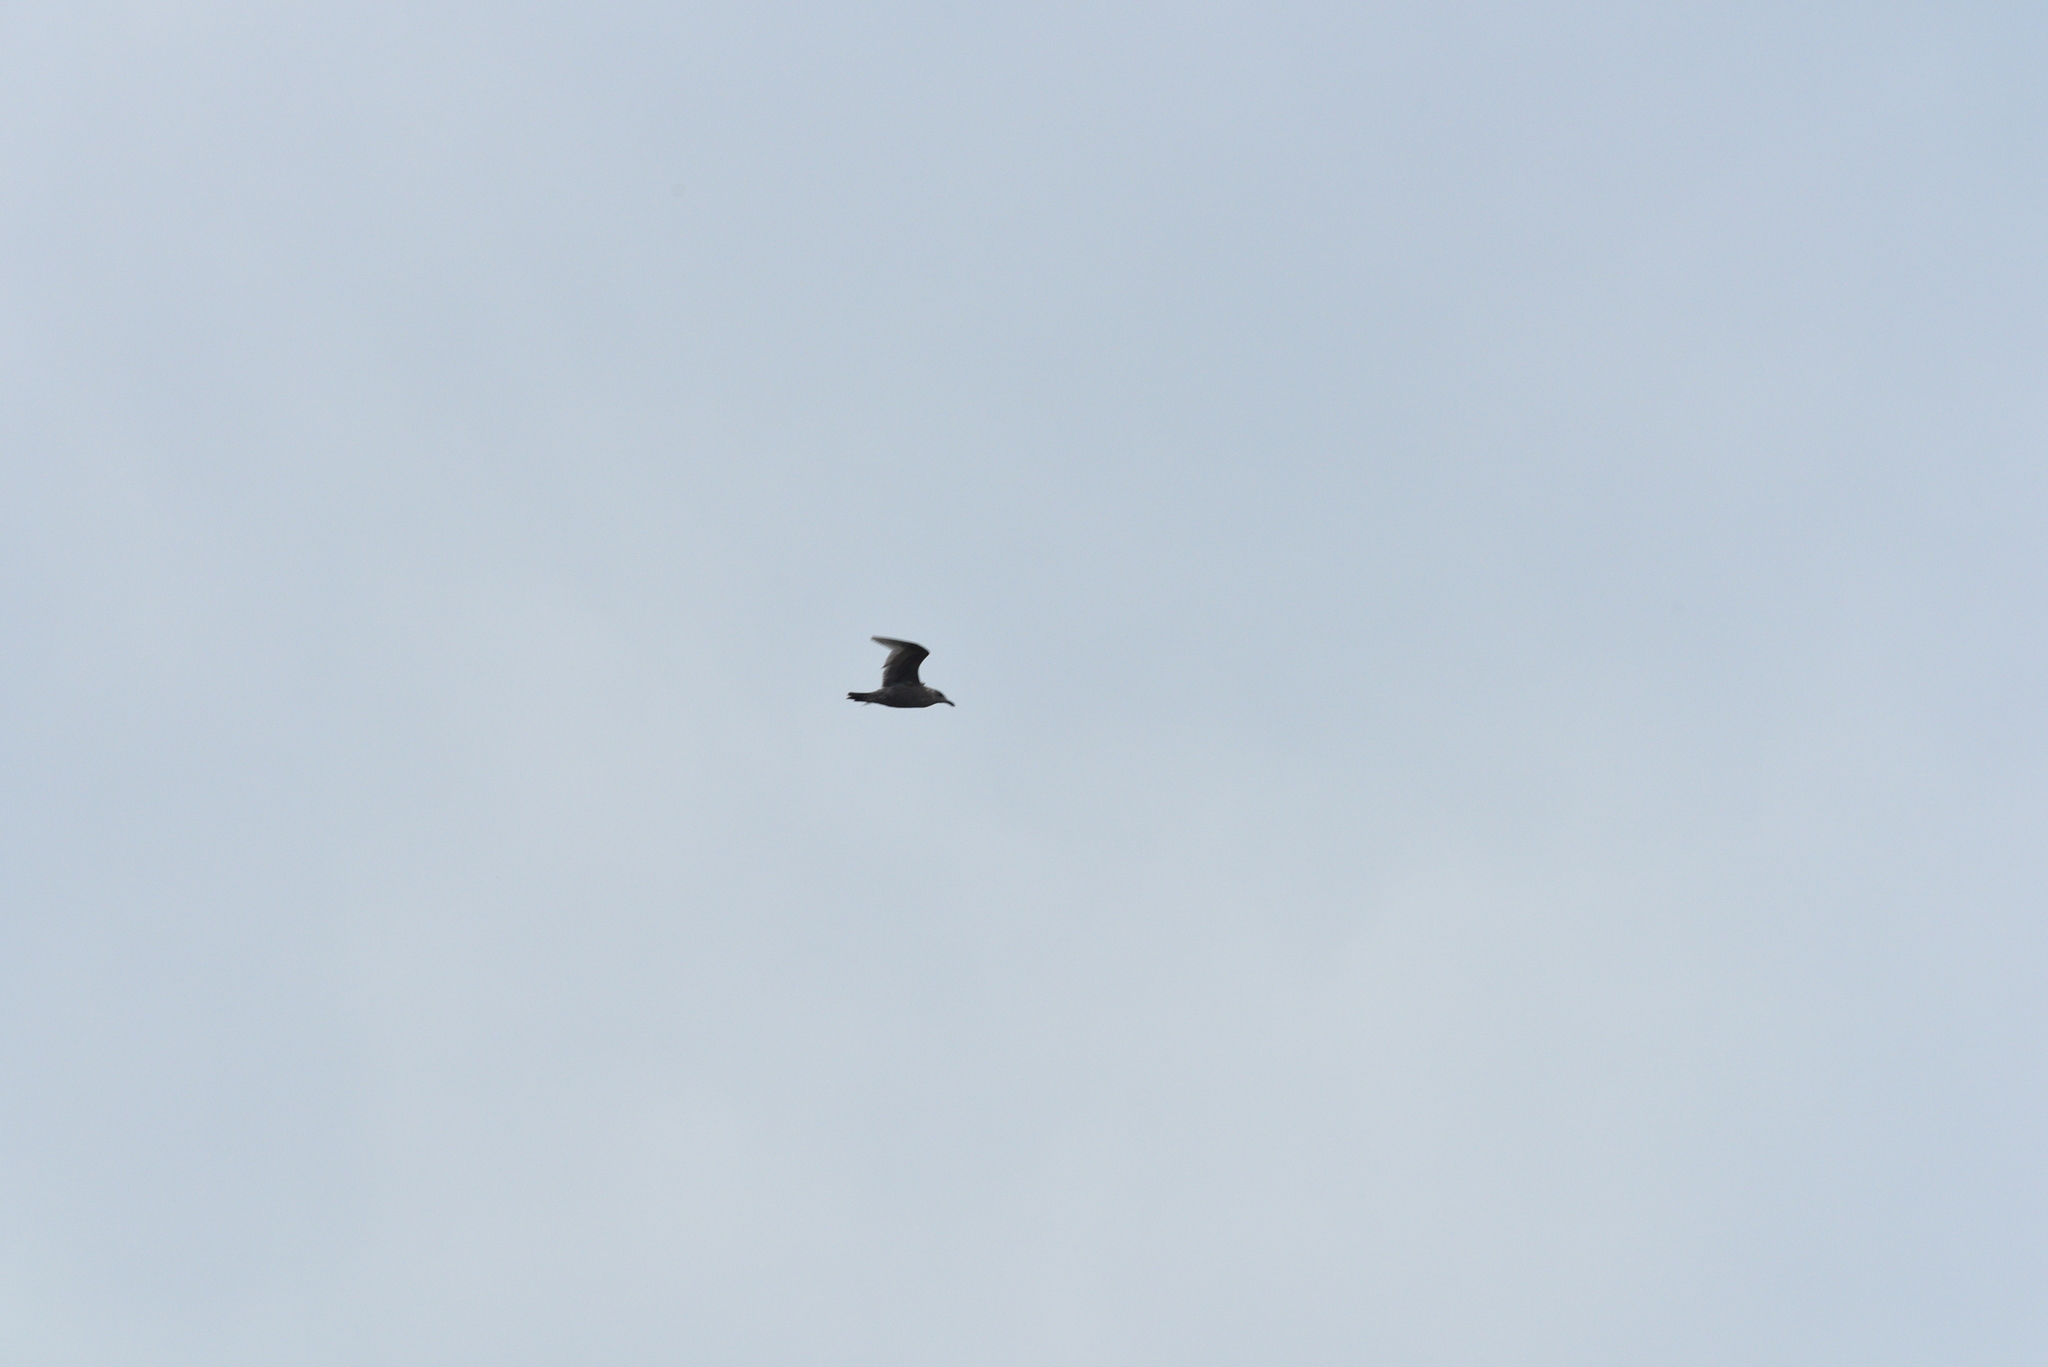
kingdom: Animalia
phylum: Chordata
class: Aves
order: Charadriiformes
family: Laridae
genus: Larus
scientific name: Larus
